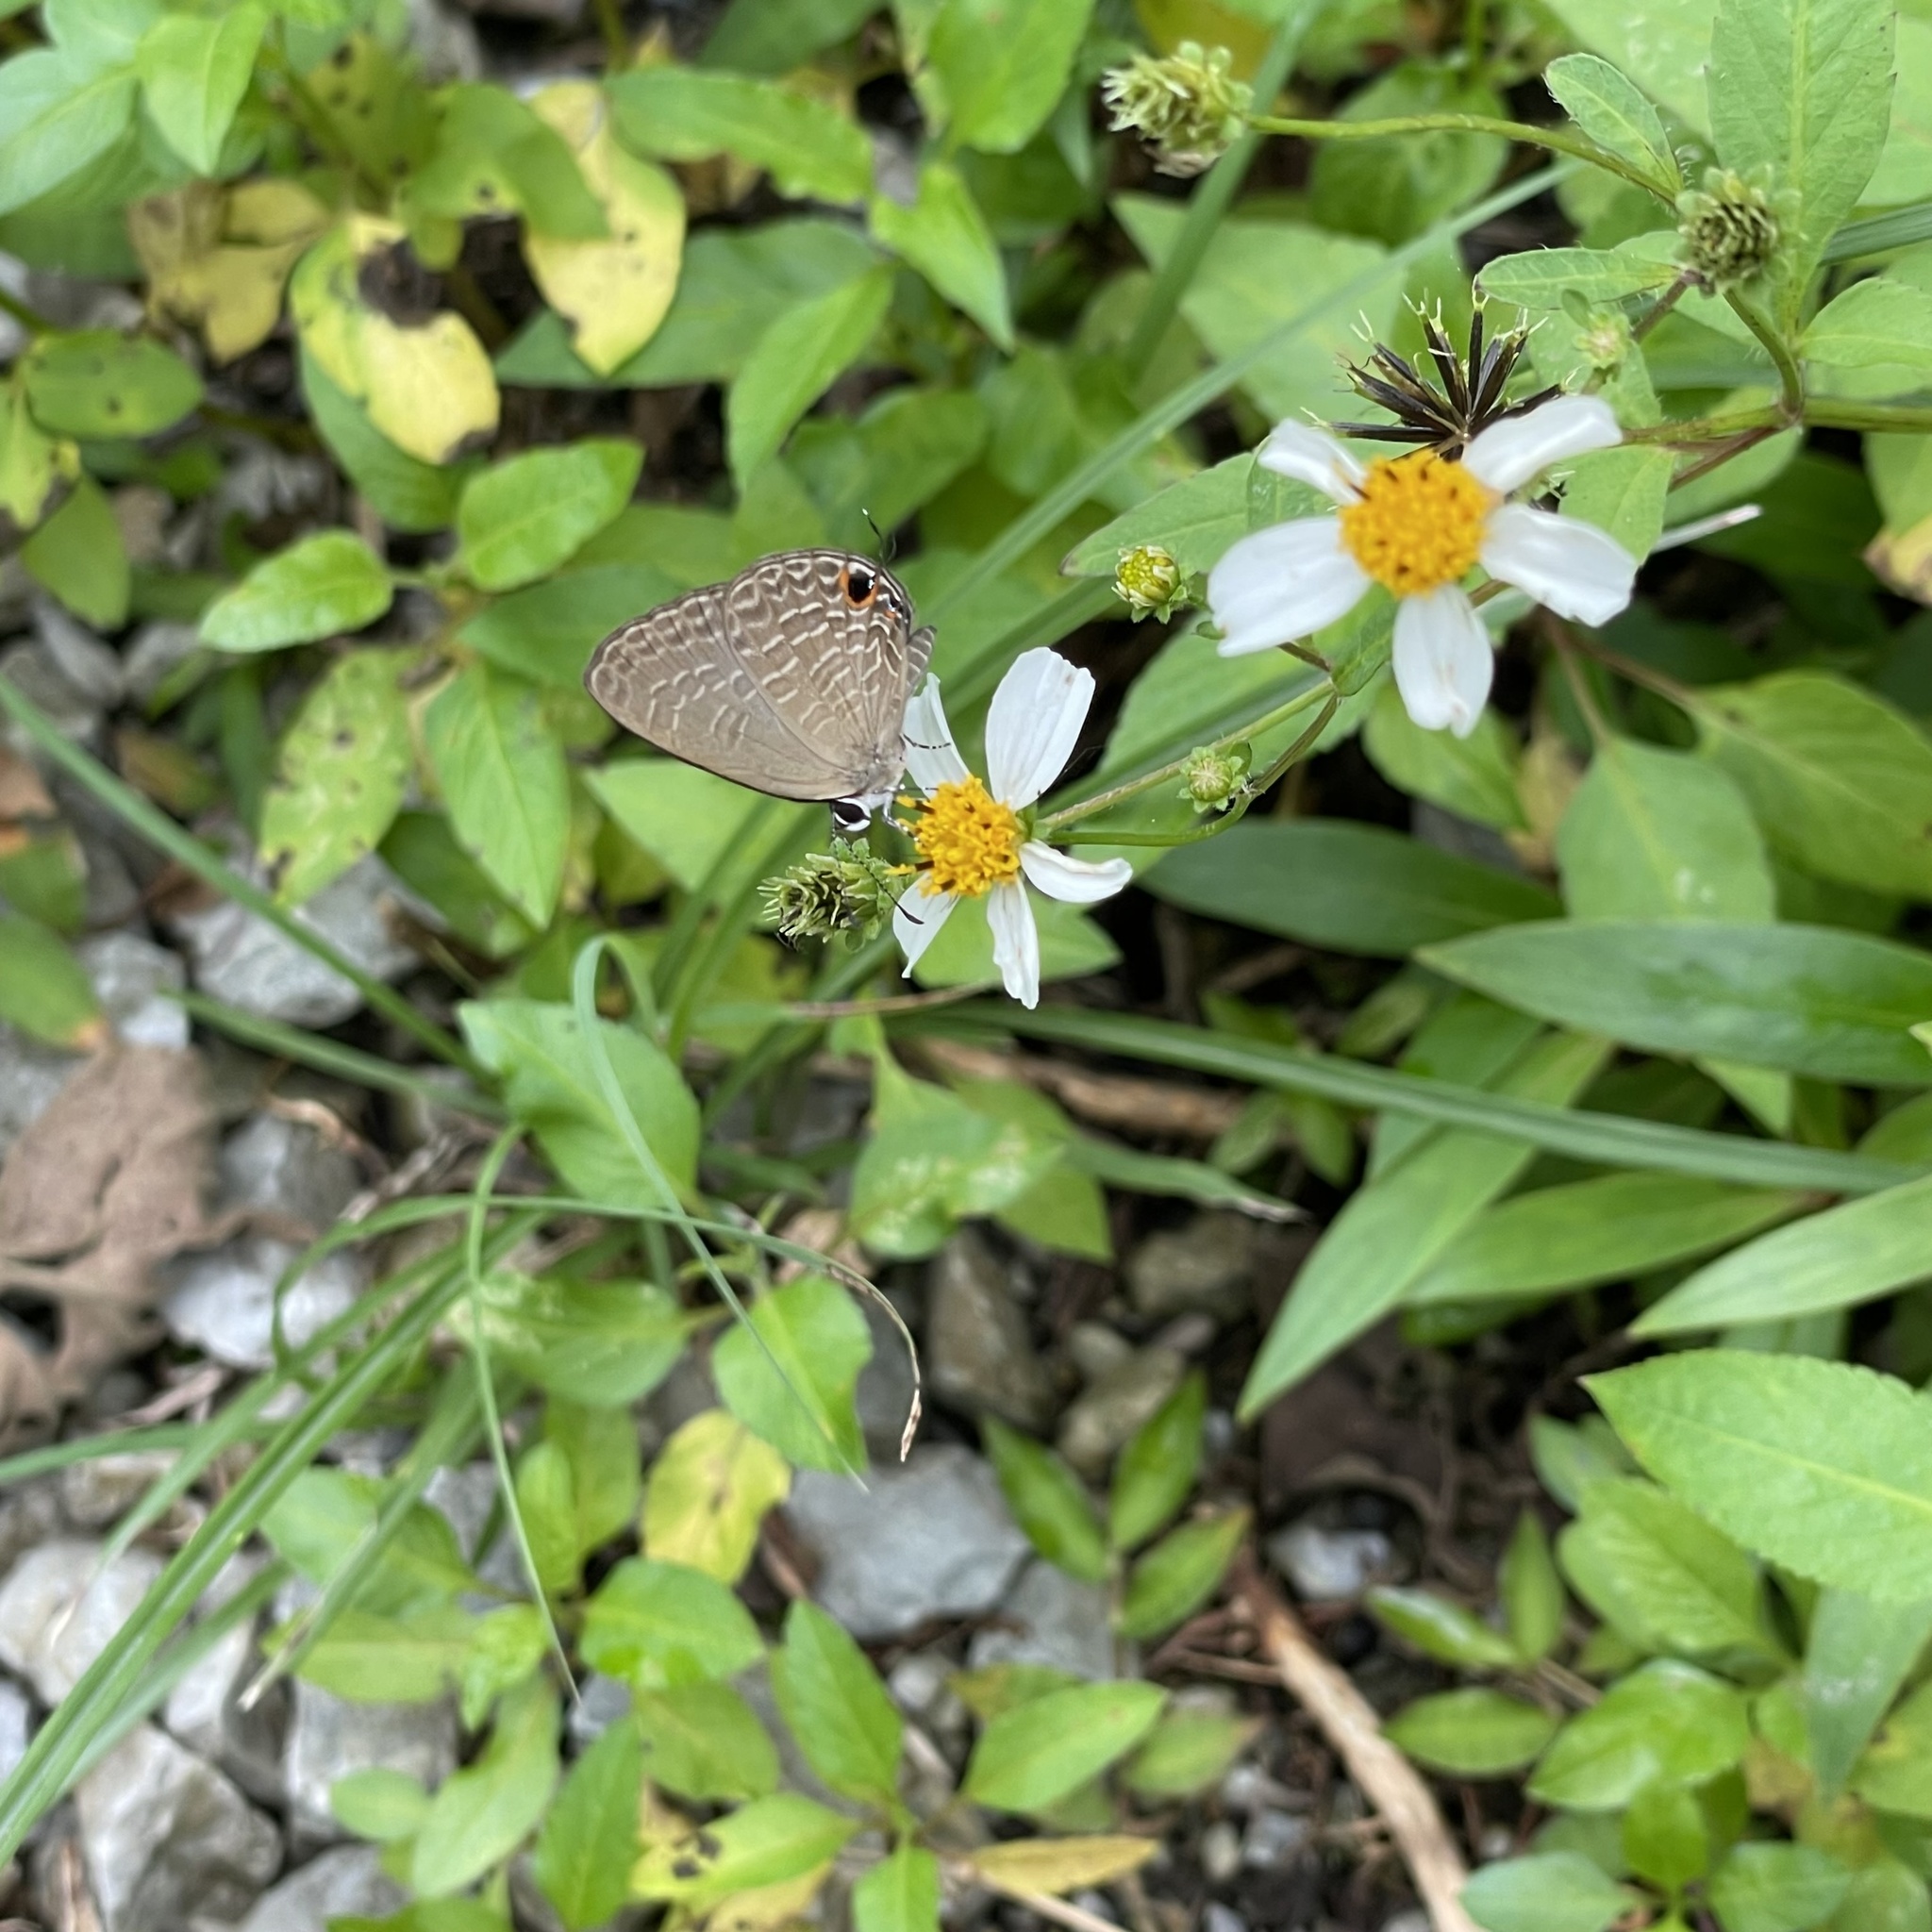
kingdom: Animalia
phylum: Arthropoda
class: Insecta
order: Lepidoptera
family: Lycaenidae
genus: Jamides
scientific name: Jamides bochus
